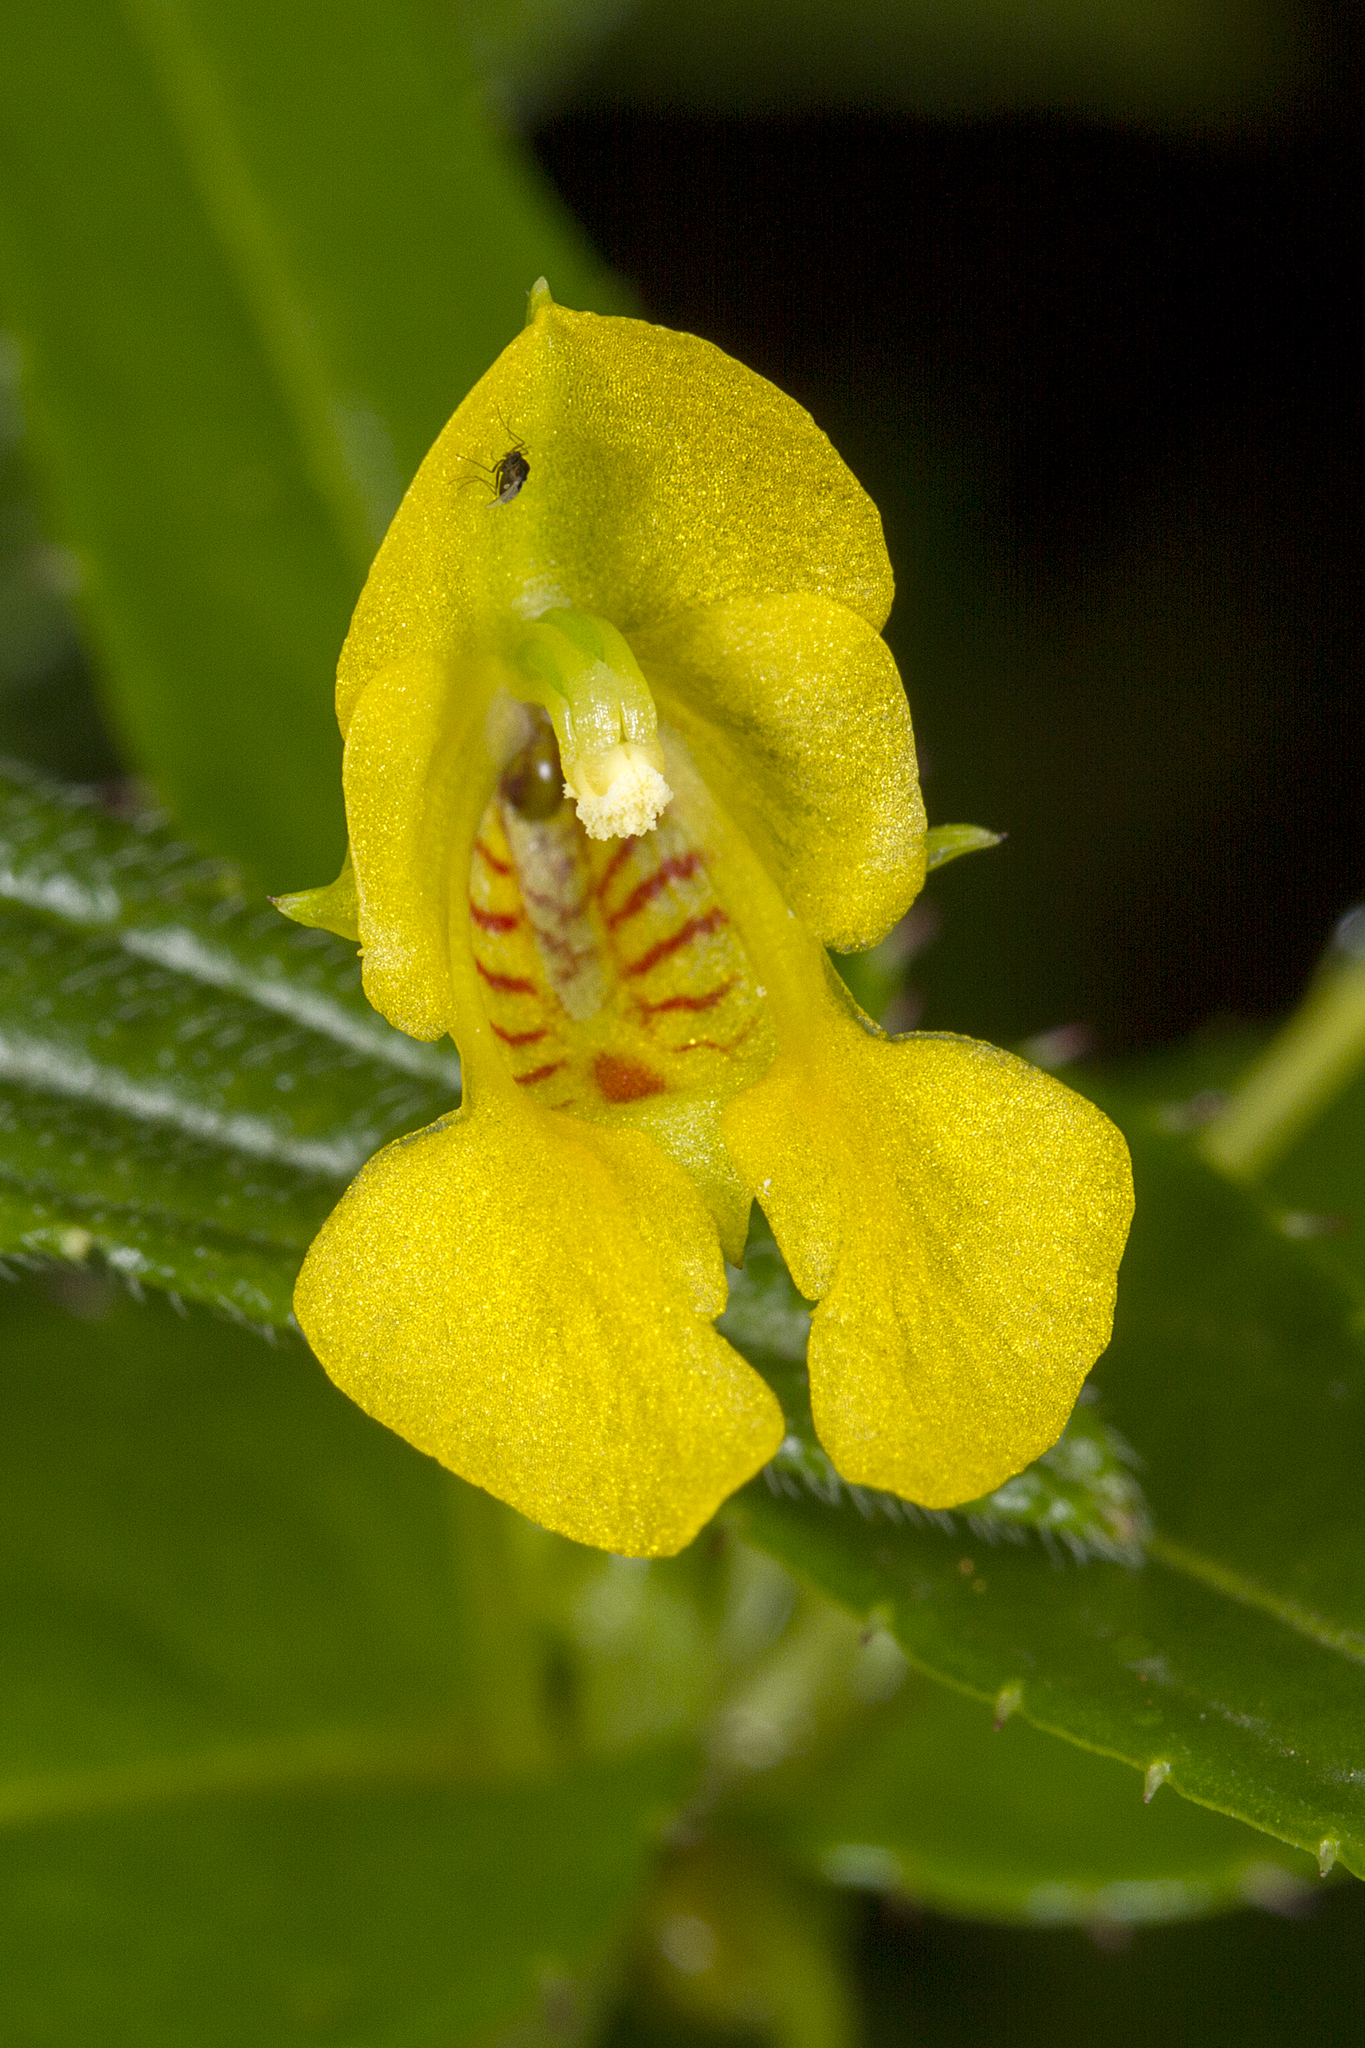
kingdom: Plantae
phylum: Tracheophyta
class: Magnoliopsida
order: Ericales
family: Balsaminaceae
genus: Impatiens
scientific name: Impatiens dalzellii
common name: Dalzell's yellow balsam
